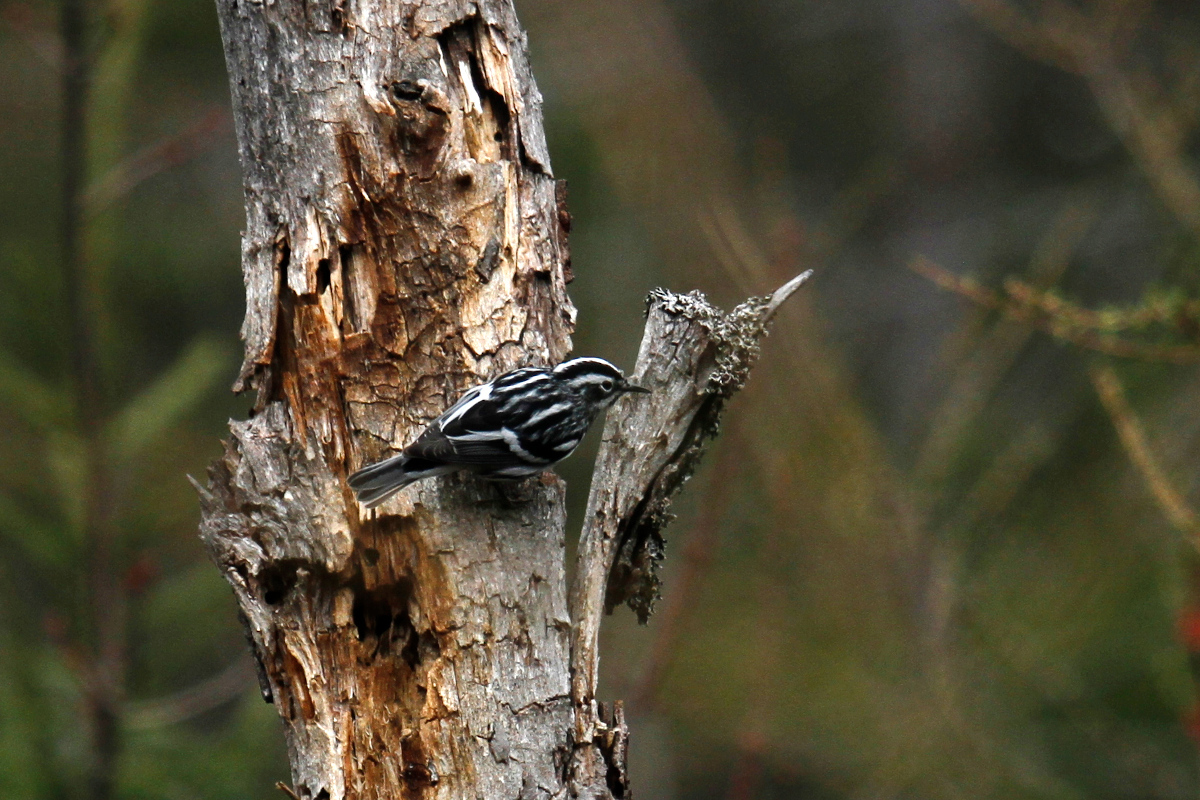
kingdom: Animalia
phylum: Chordata
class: Aves
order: Passeriformes
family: Parulidae
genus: Mniotilta
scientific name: Mniotilta varia
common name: Black-and-white warbler
